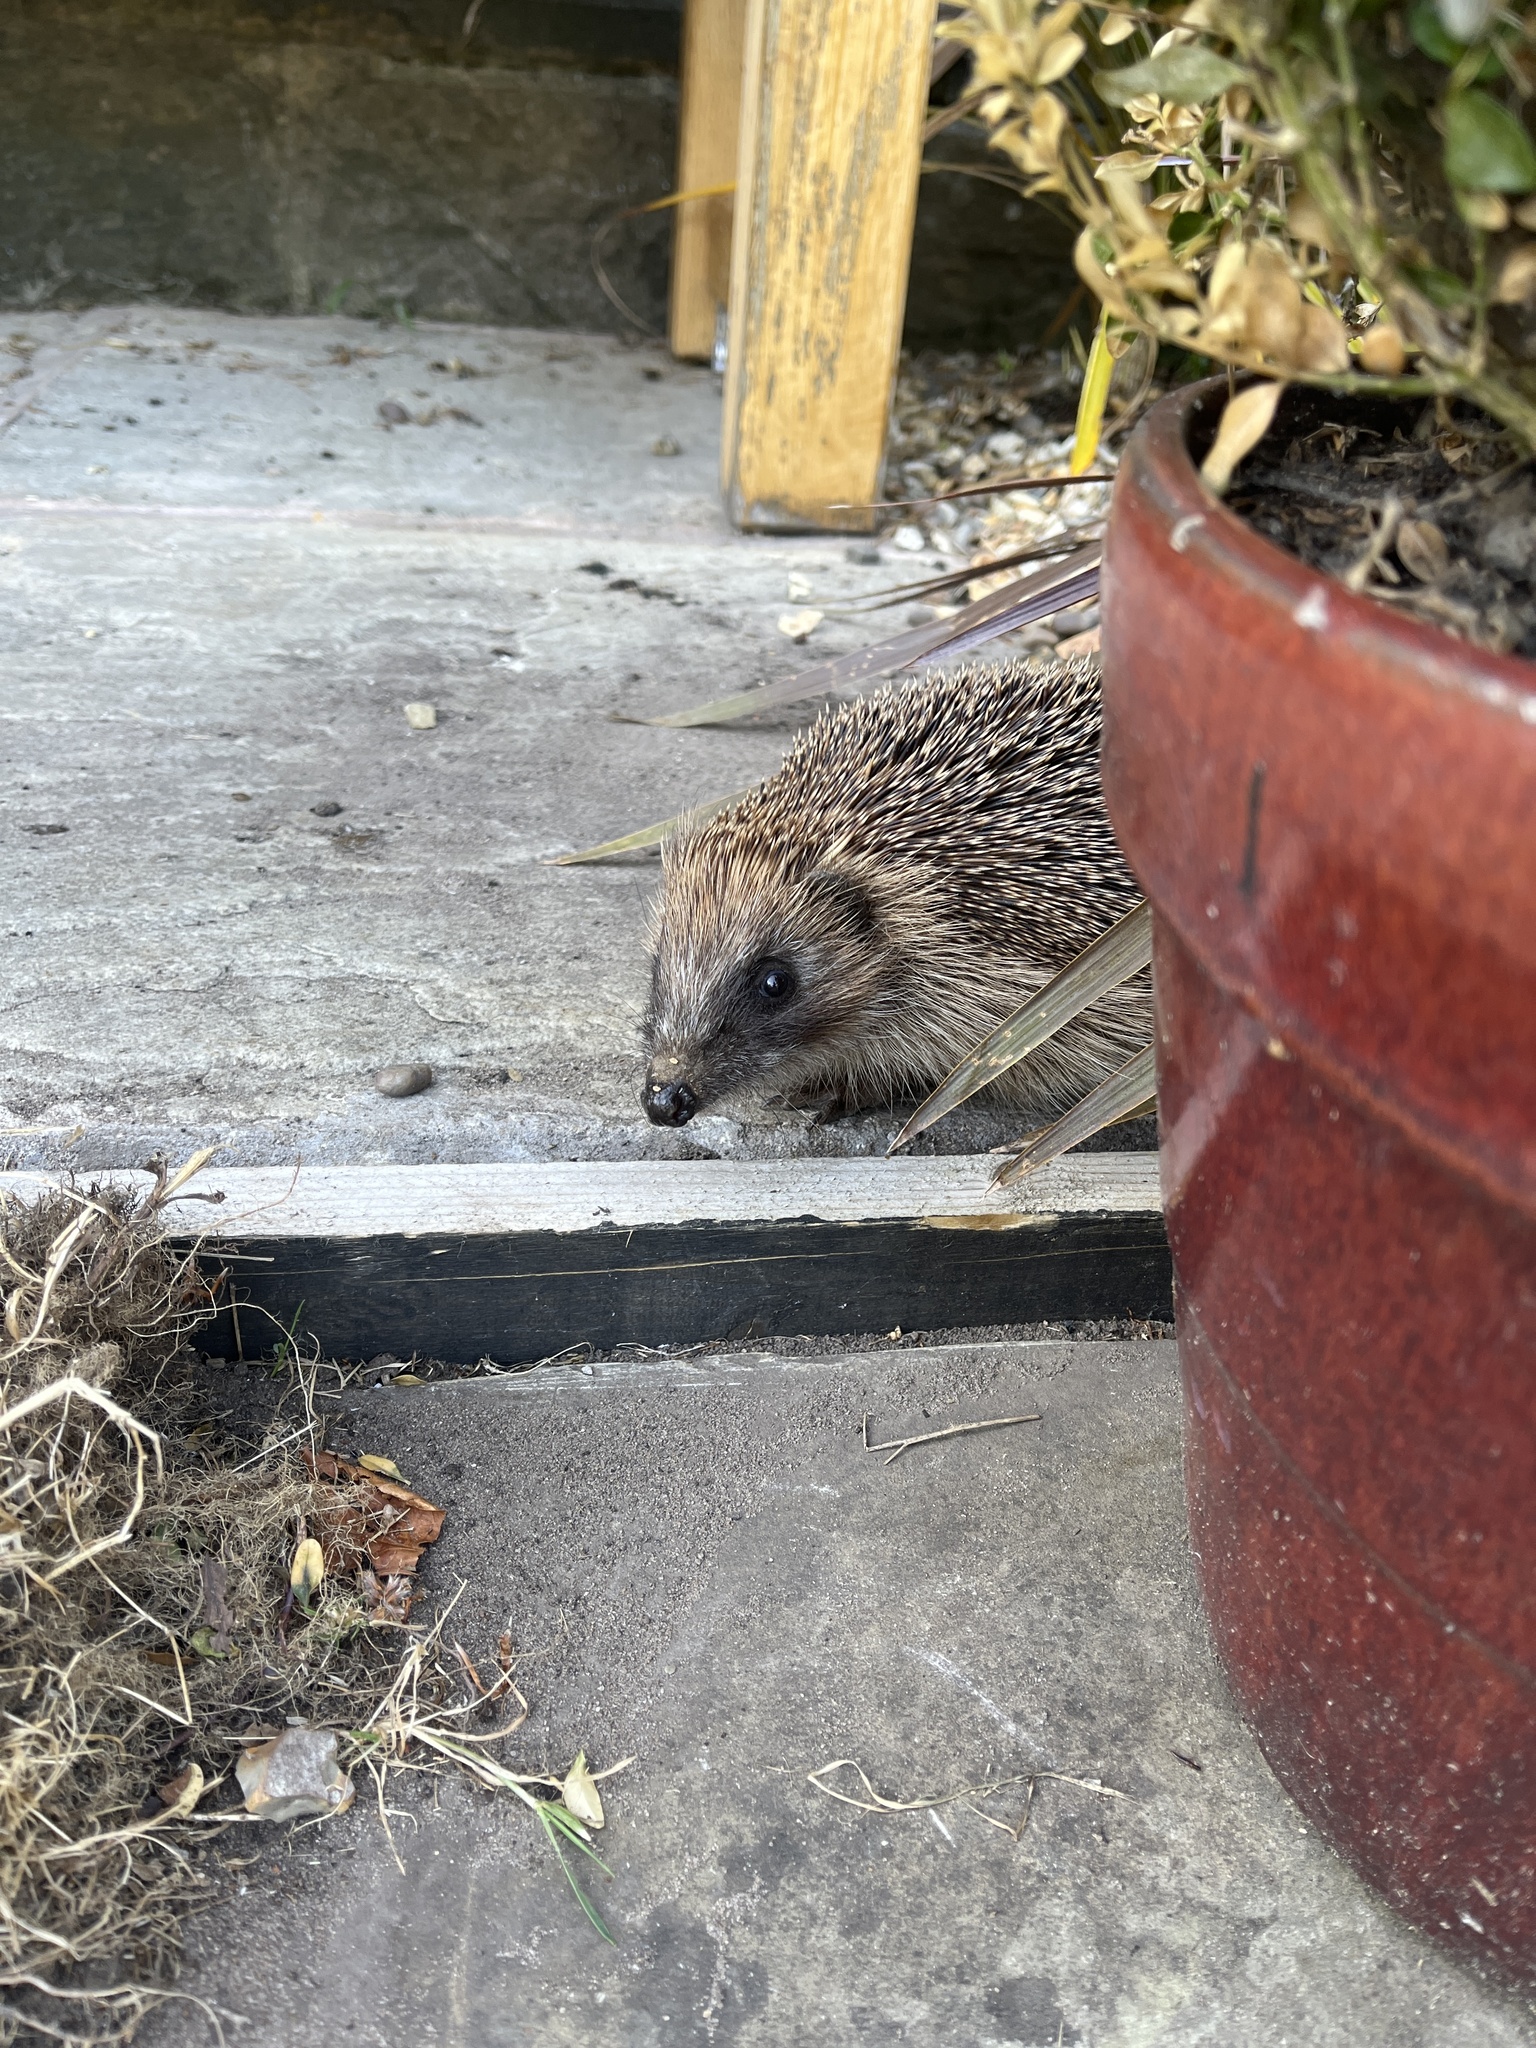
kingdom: Animalia
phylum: Chordata
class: Mammalia
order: Erinaceomorpha
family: Erinaceidae
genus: Erinaceus
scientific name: Erinaceus europaeus
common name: West european hedgehog
